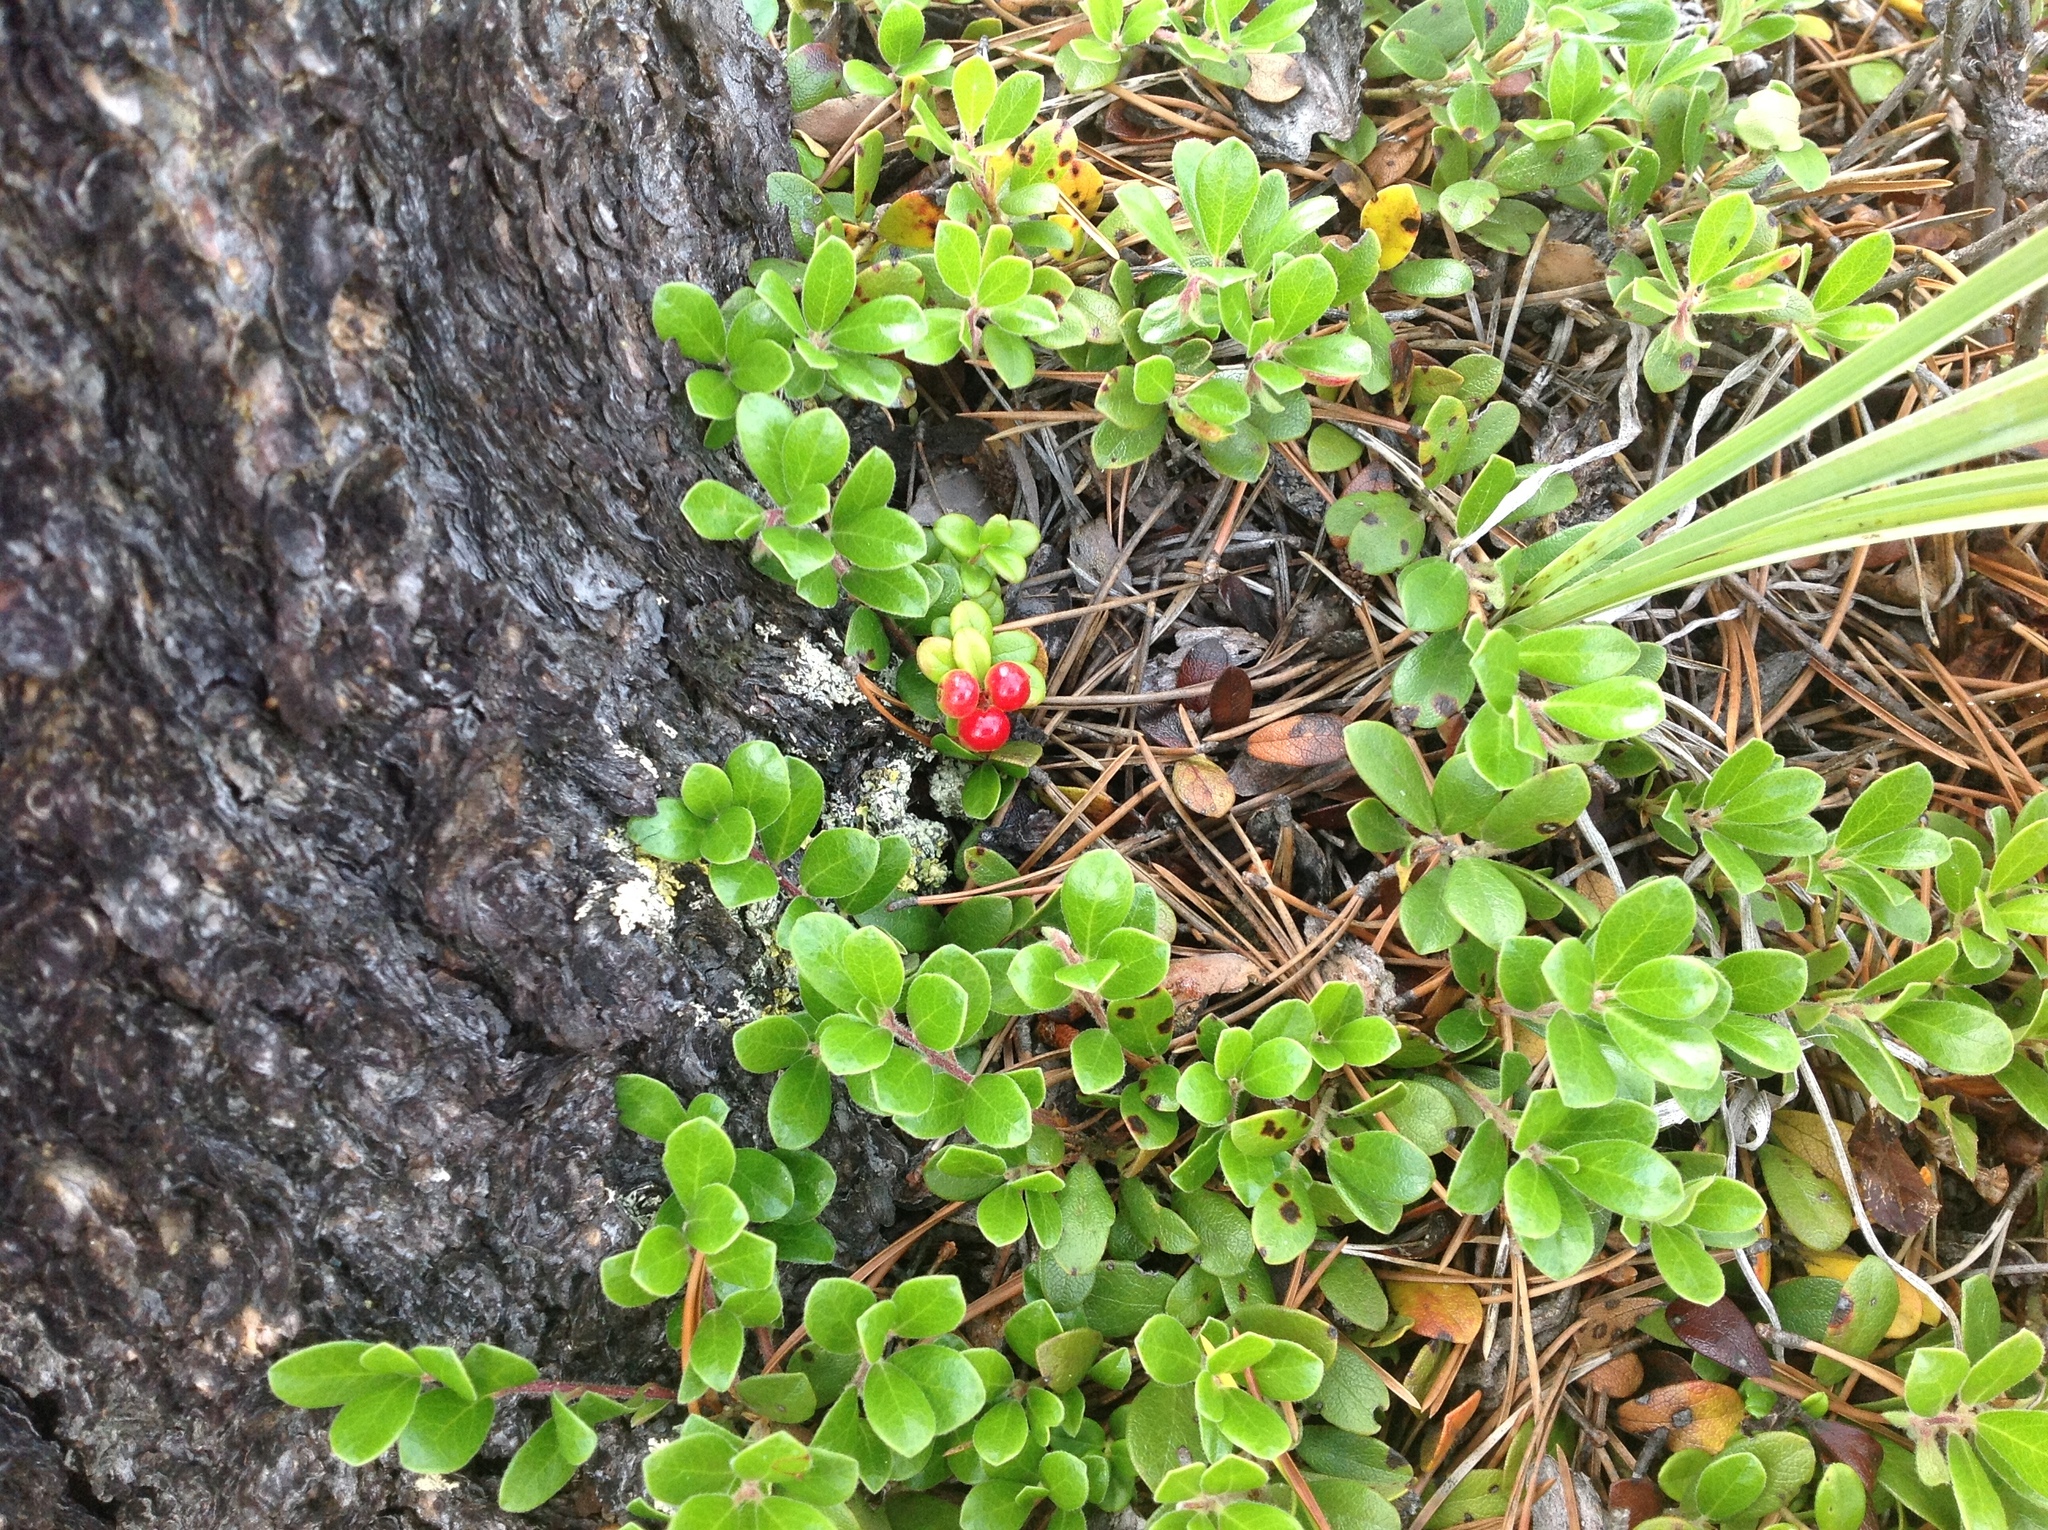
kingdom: Plantae
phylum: Tracheophyta
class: Magnoliopsida
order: Ericales
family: Ericaceae
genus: Arctostaphylos
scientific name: Arctostaphylos uva-ursi
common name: Bearberry
